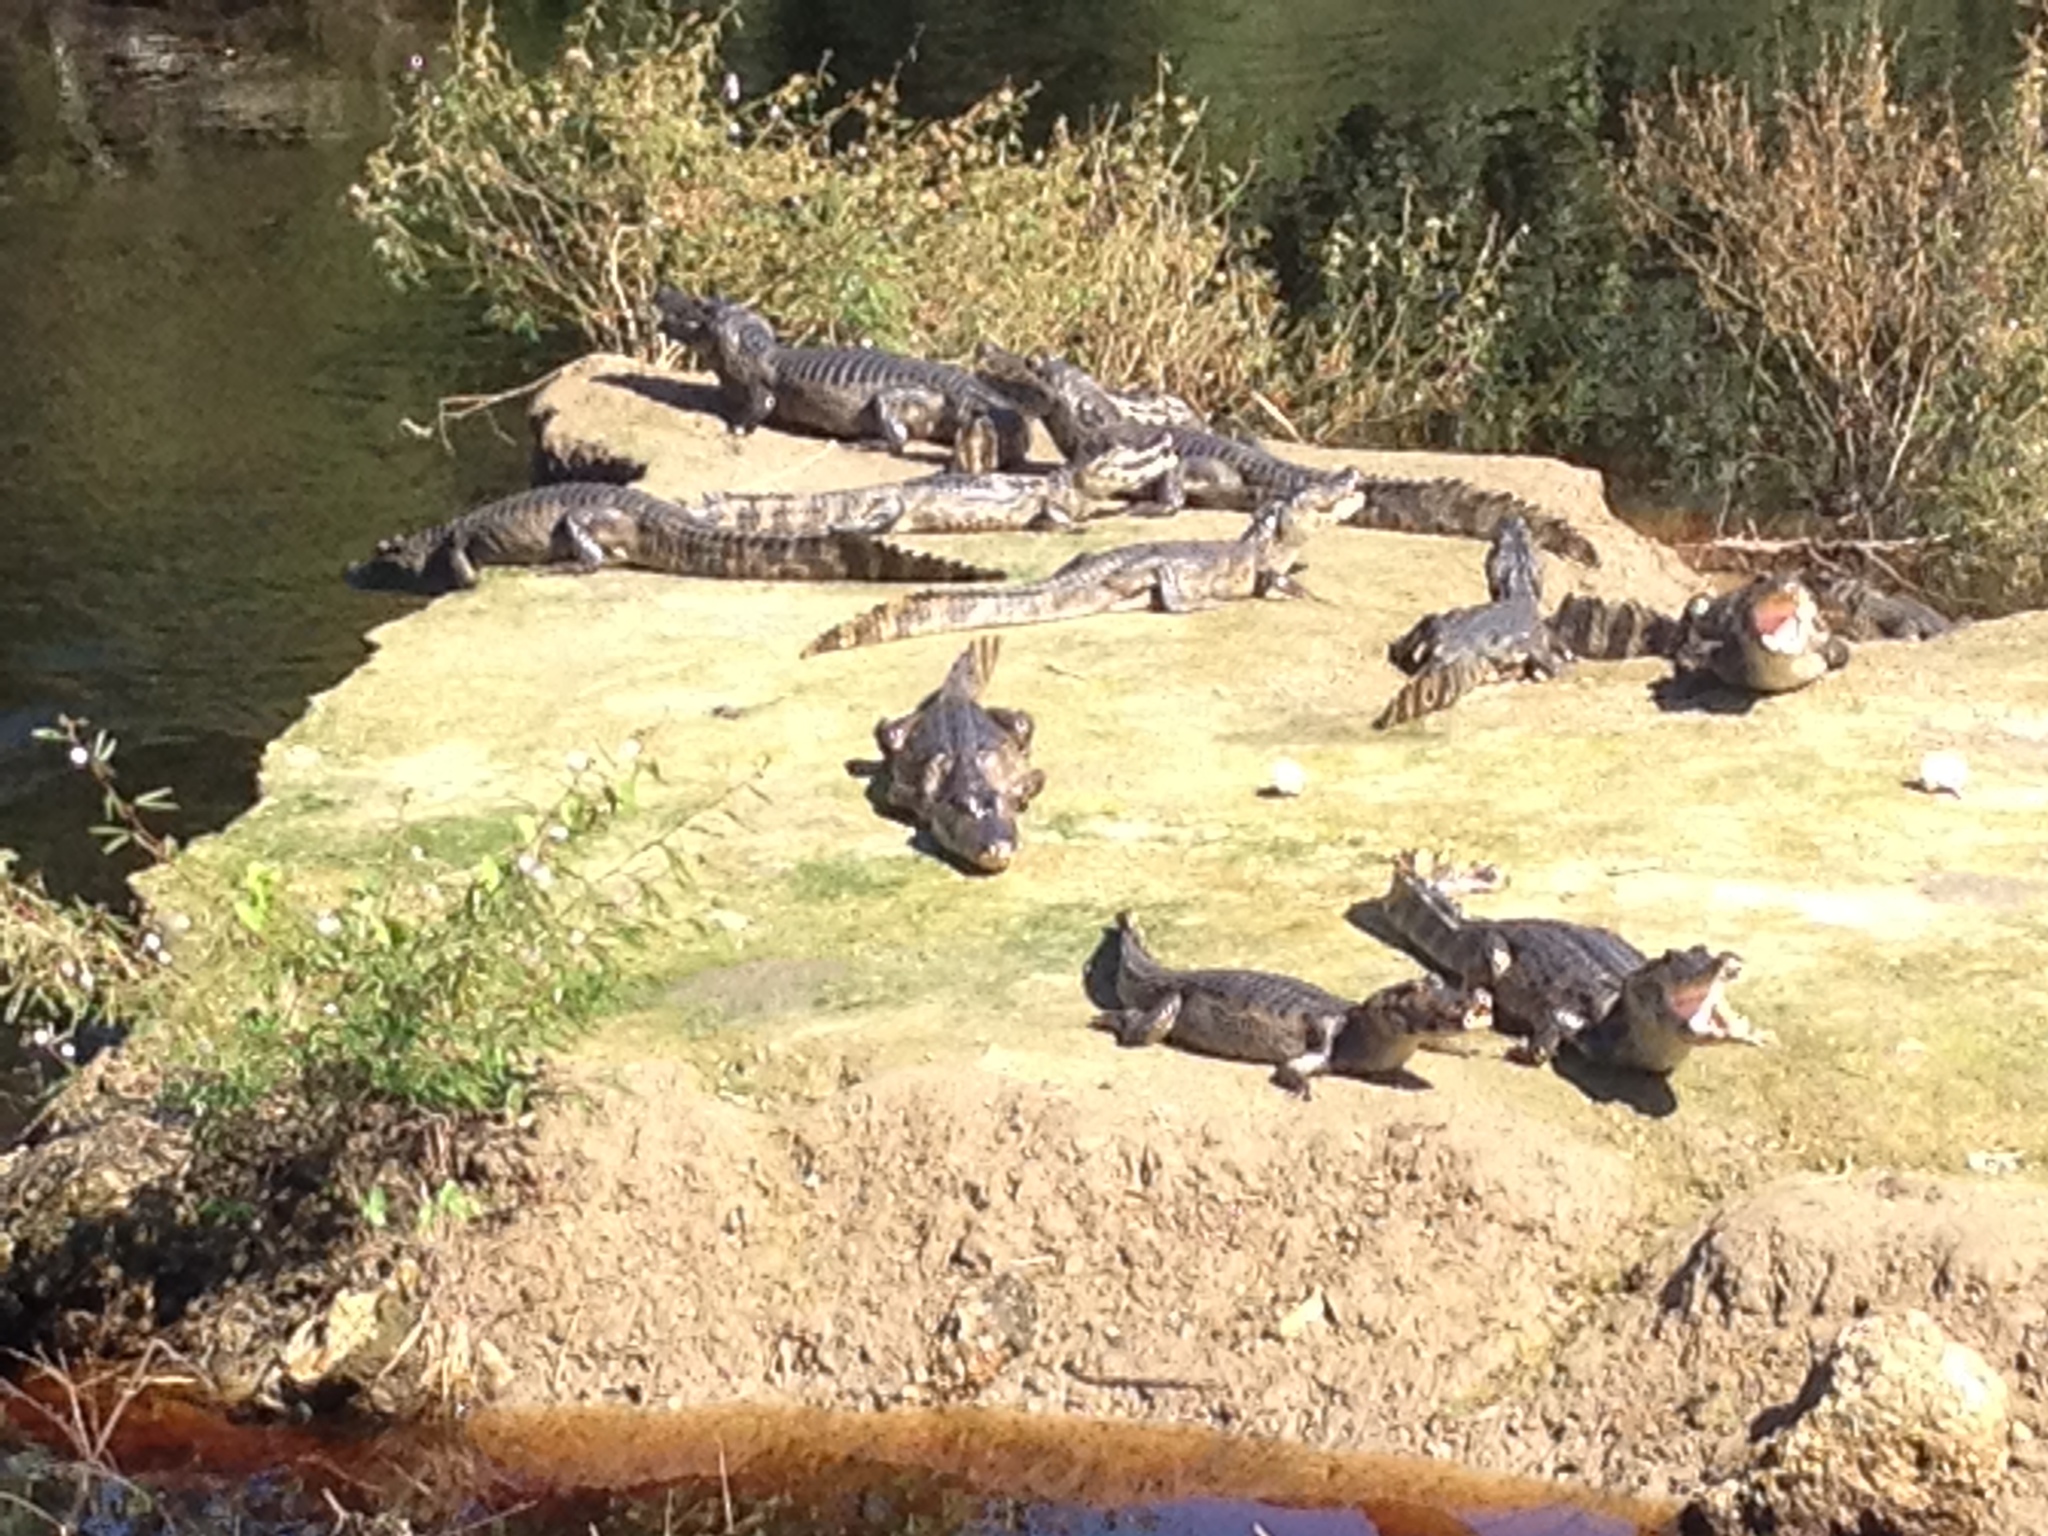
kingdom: Animalia
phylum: Chordata
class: Crocodylia
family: Alligatoridae
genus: Caiman
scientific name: Caiman yacare
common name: Yacare caiman
